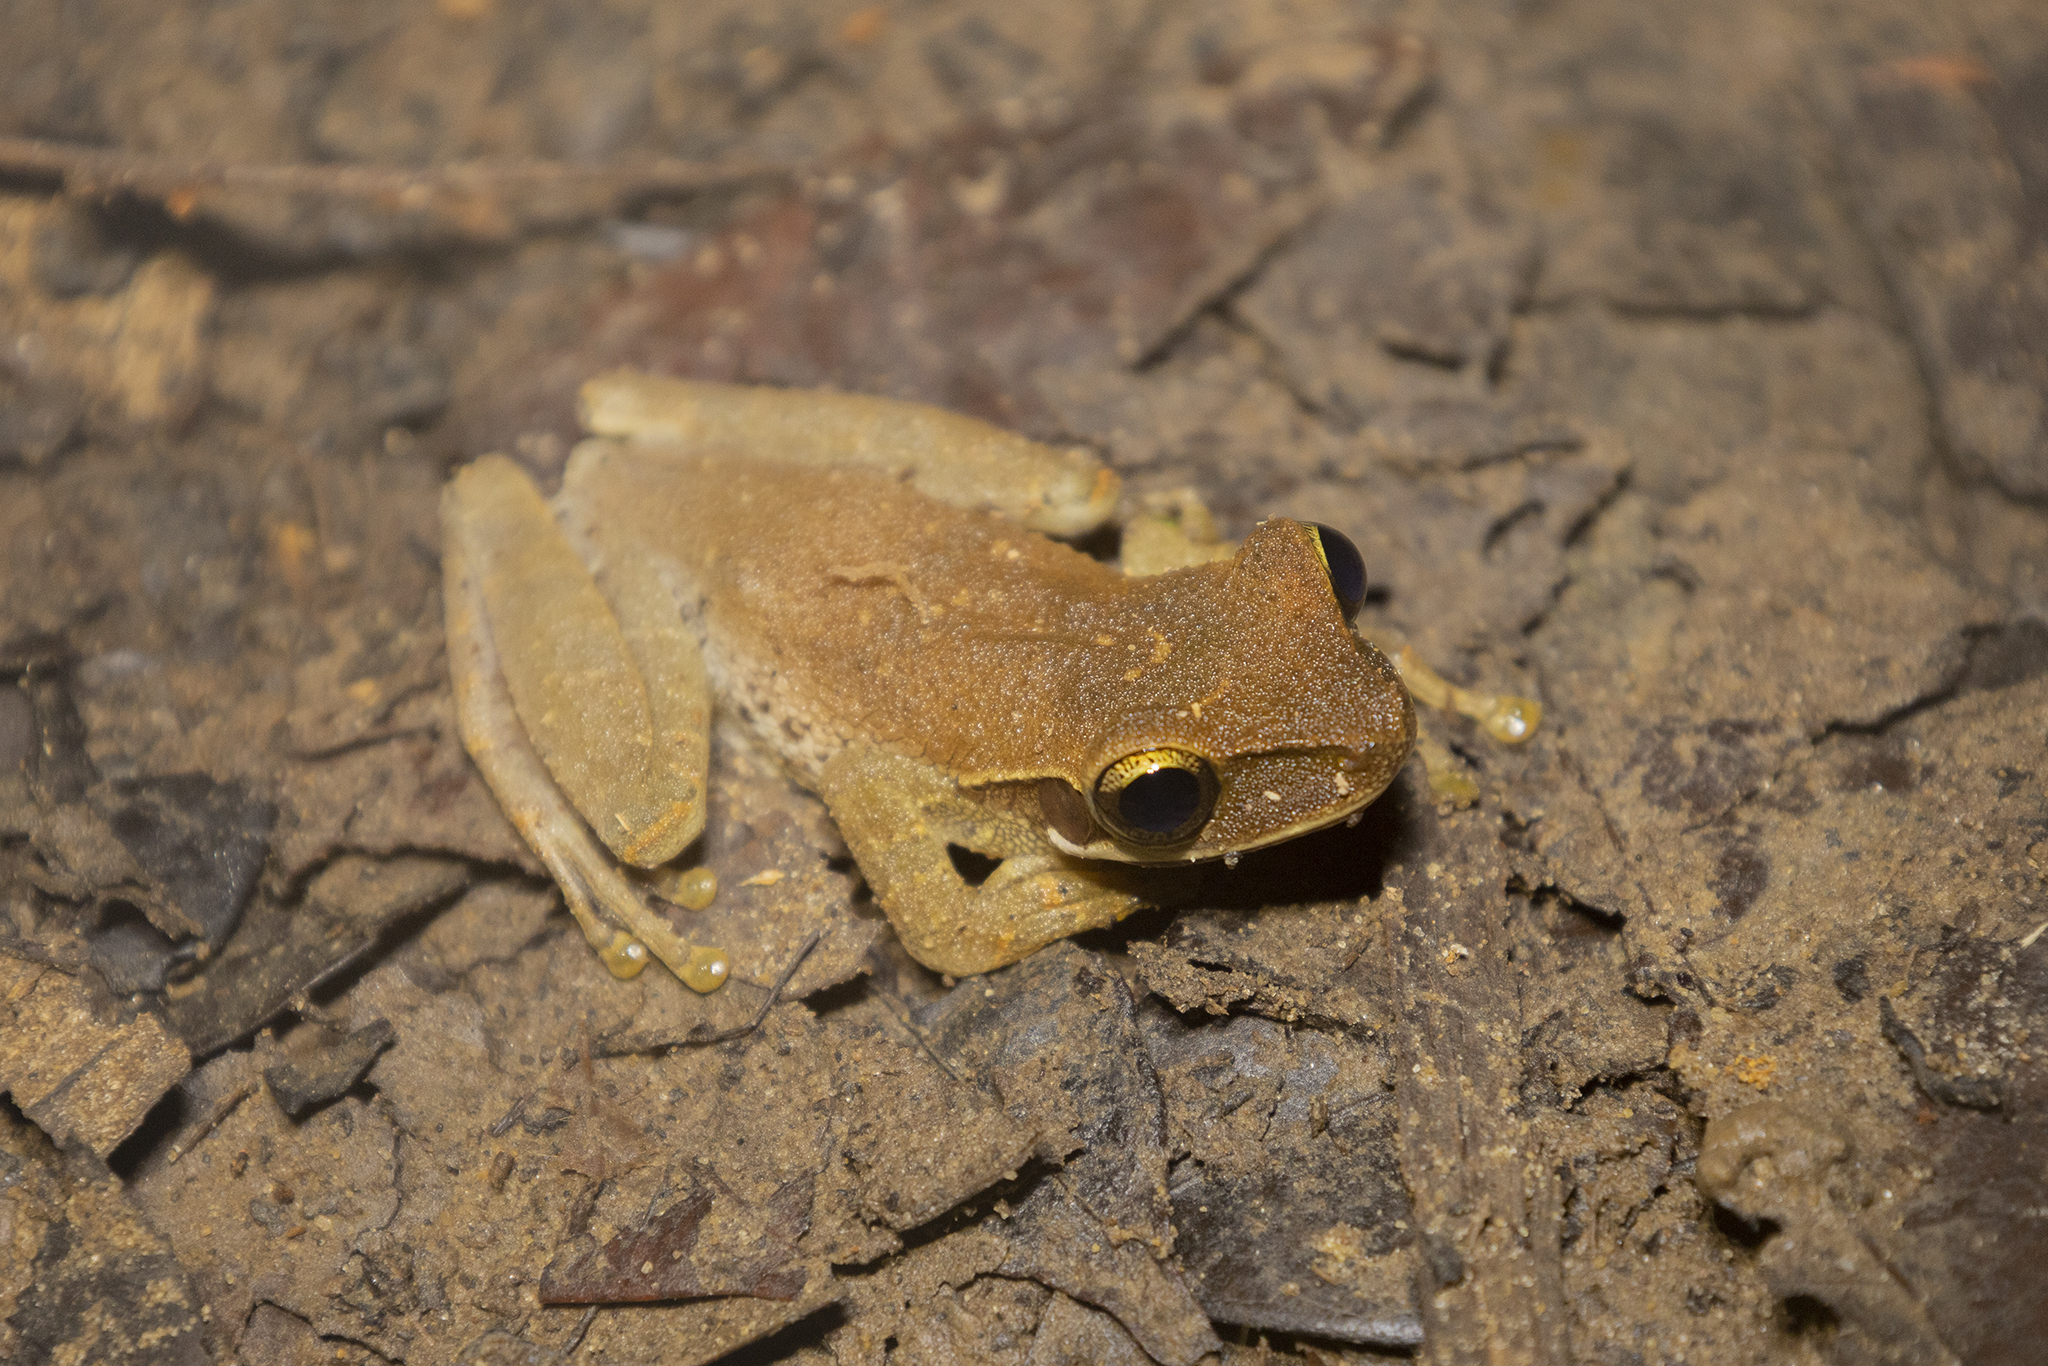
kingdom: Animalia
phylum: Chordata
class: Amphibia
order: Anura
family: Hylidae
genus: Osteocephalus
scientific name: Osteocephalus planiceps
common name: Flat headed bromeliad treefrog
